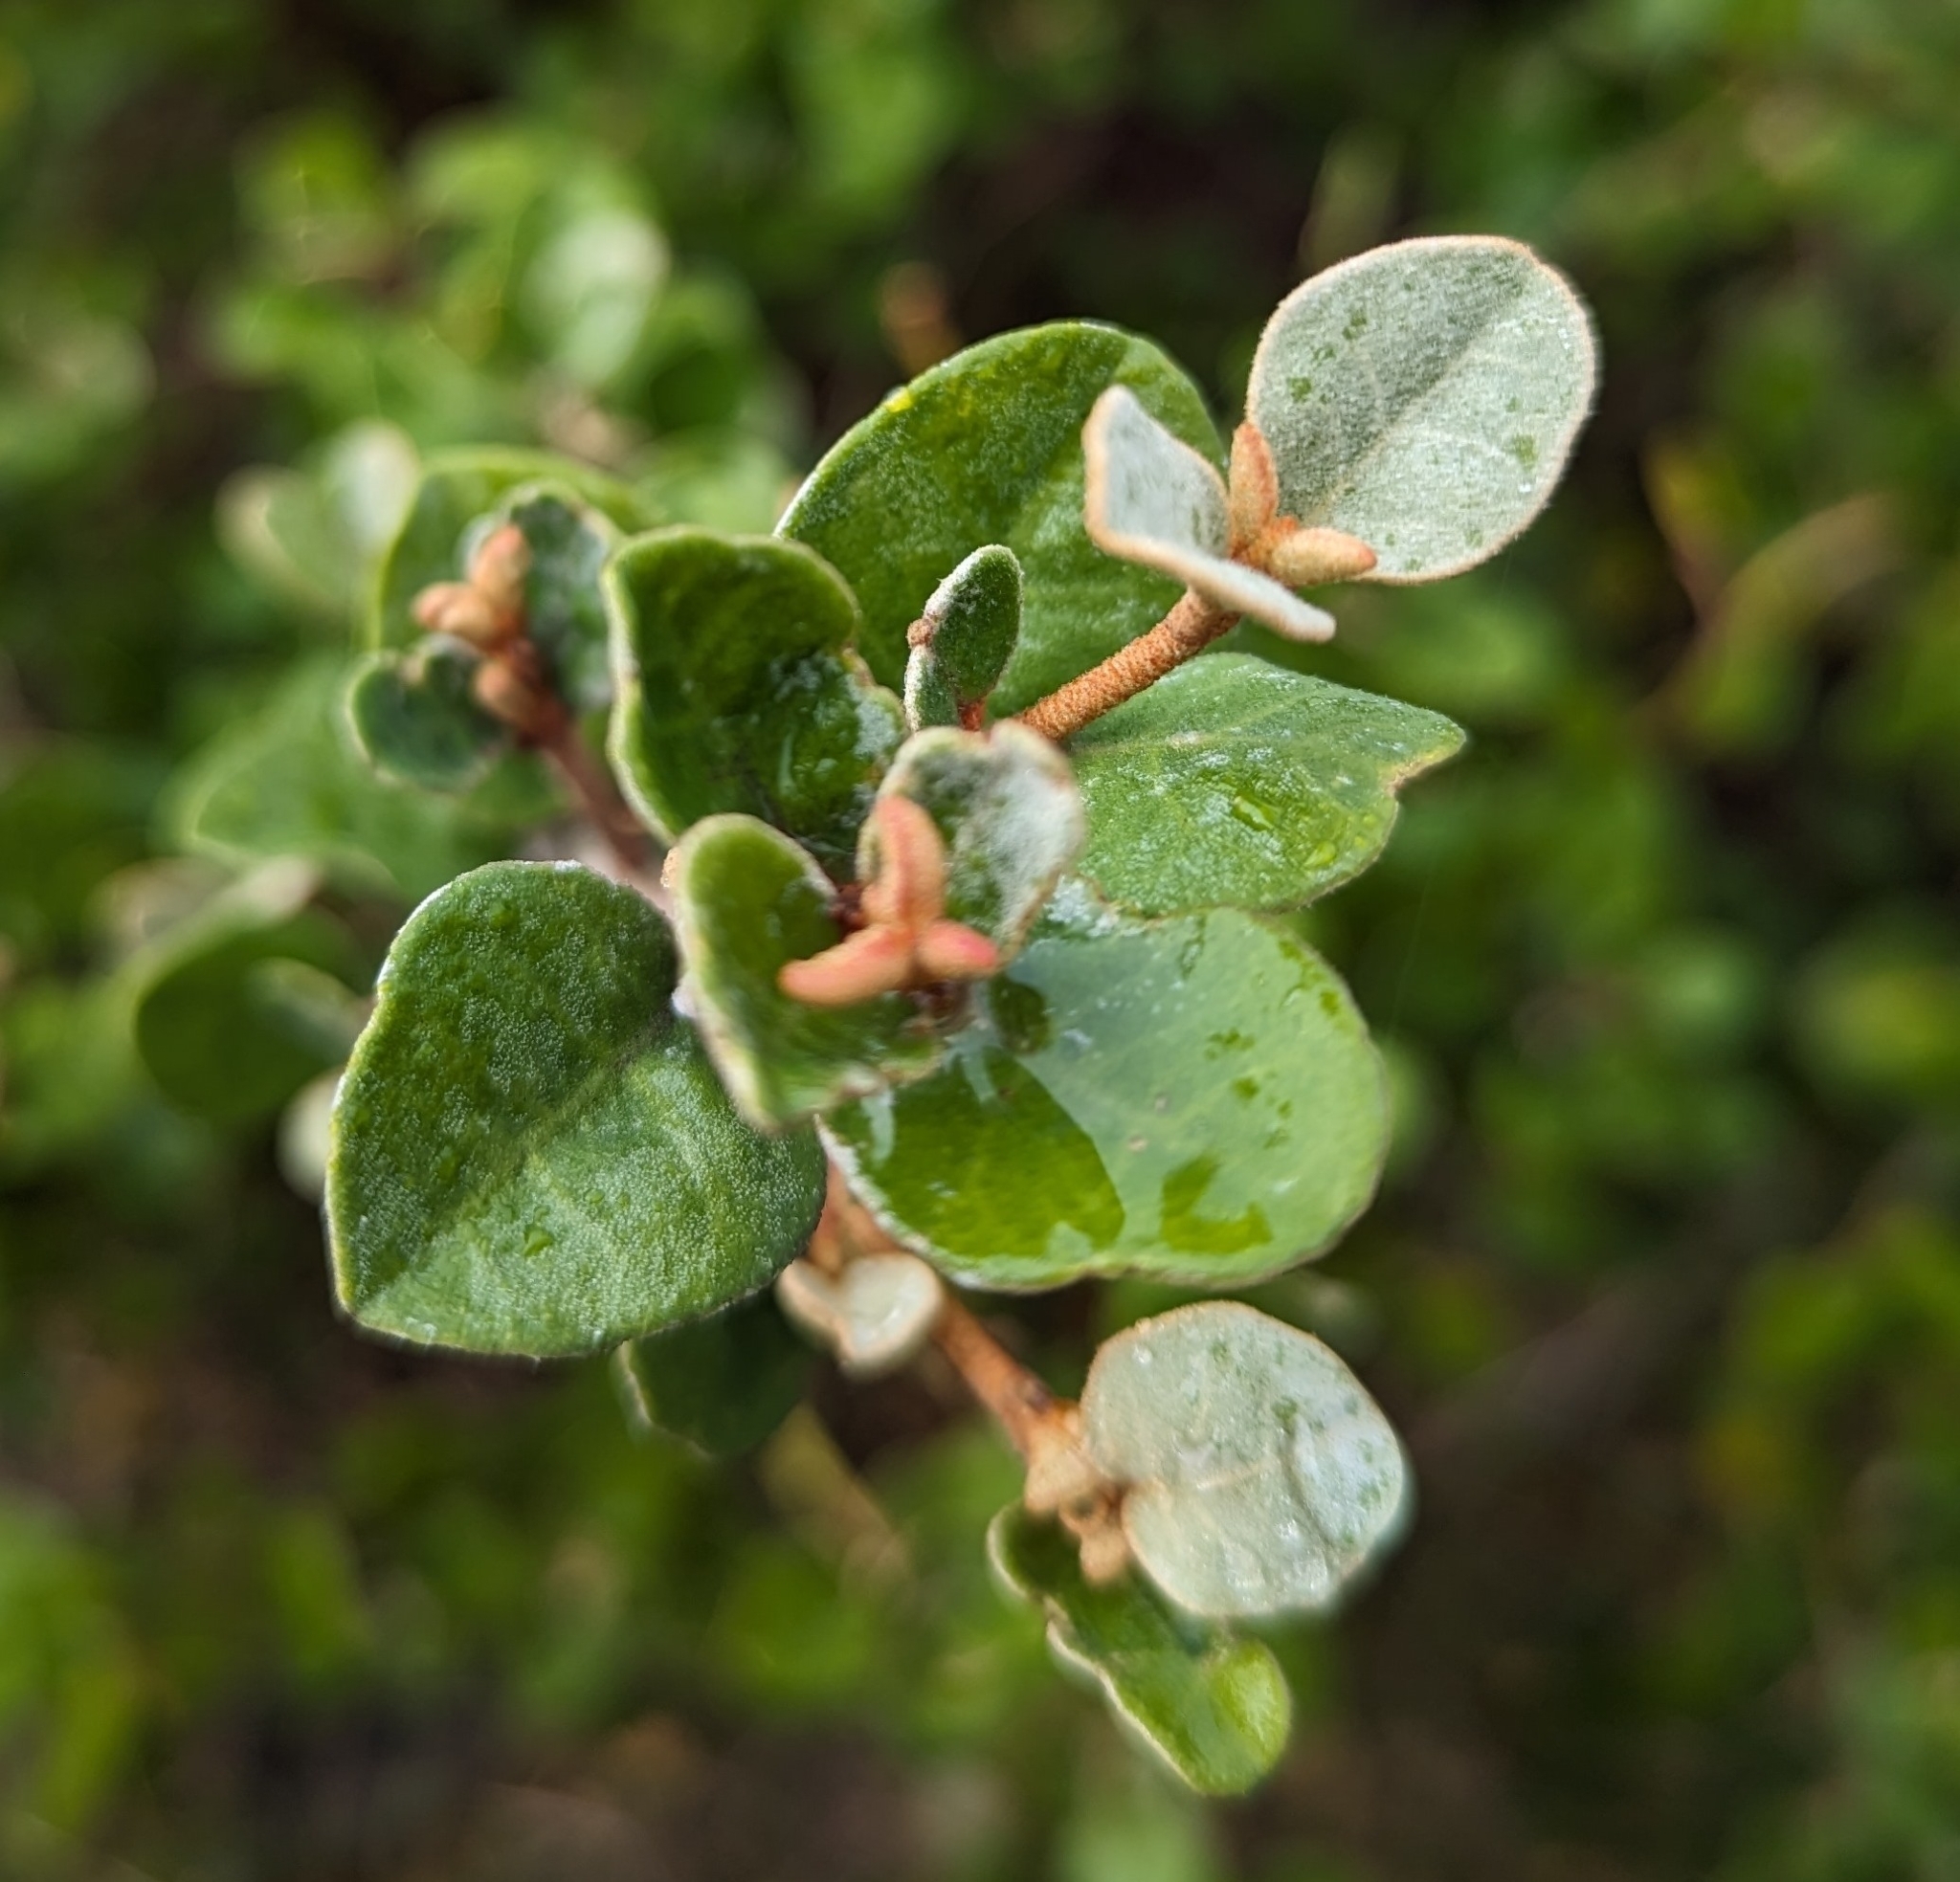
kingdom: Plantae
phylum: Tracheophyta
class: Magnoliopsida
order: Sapindales
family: Rutaceae
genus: Correa
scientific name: Correa alba
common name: White correa
